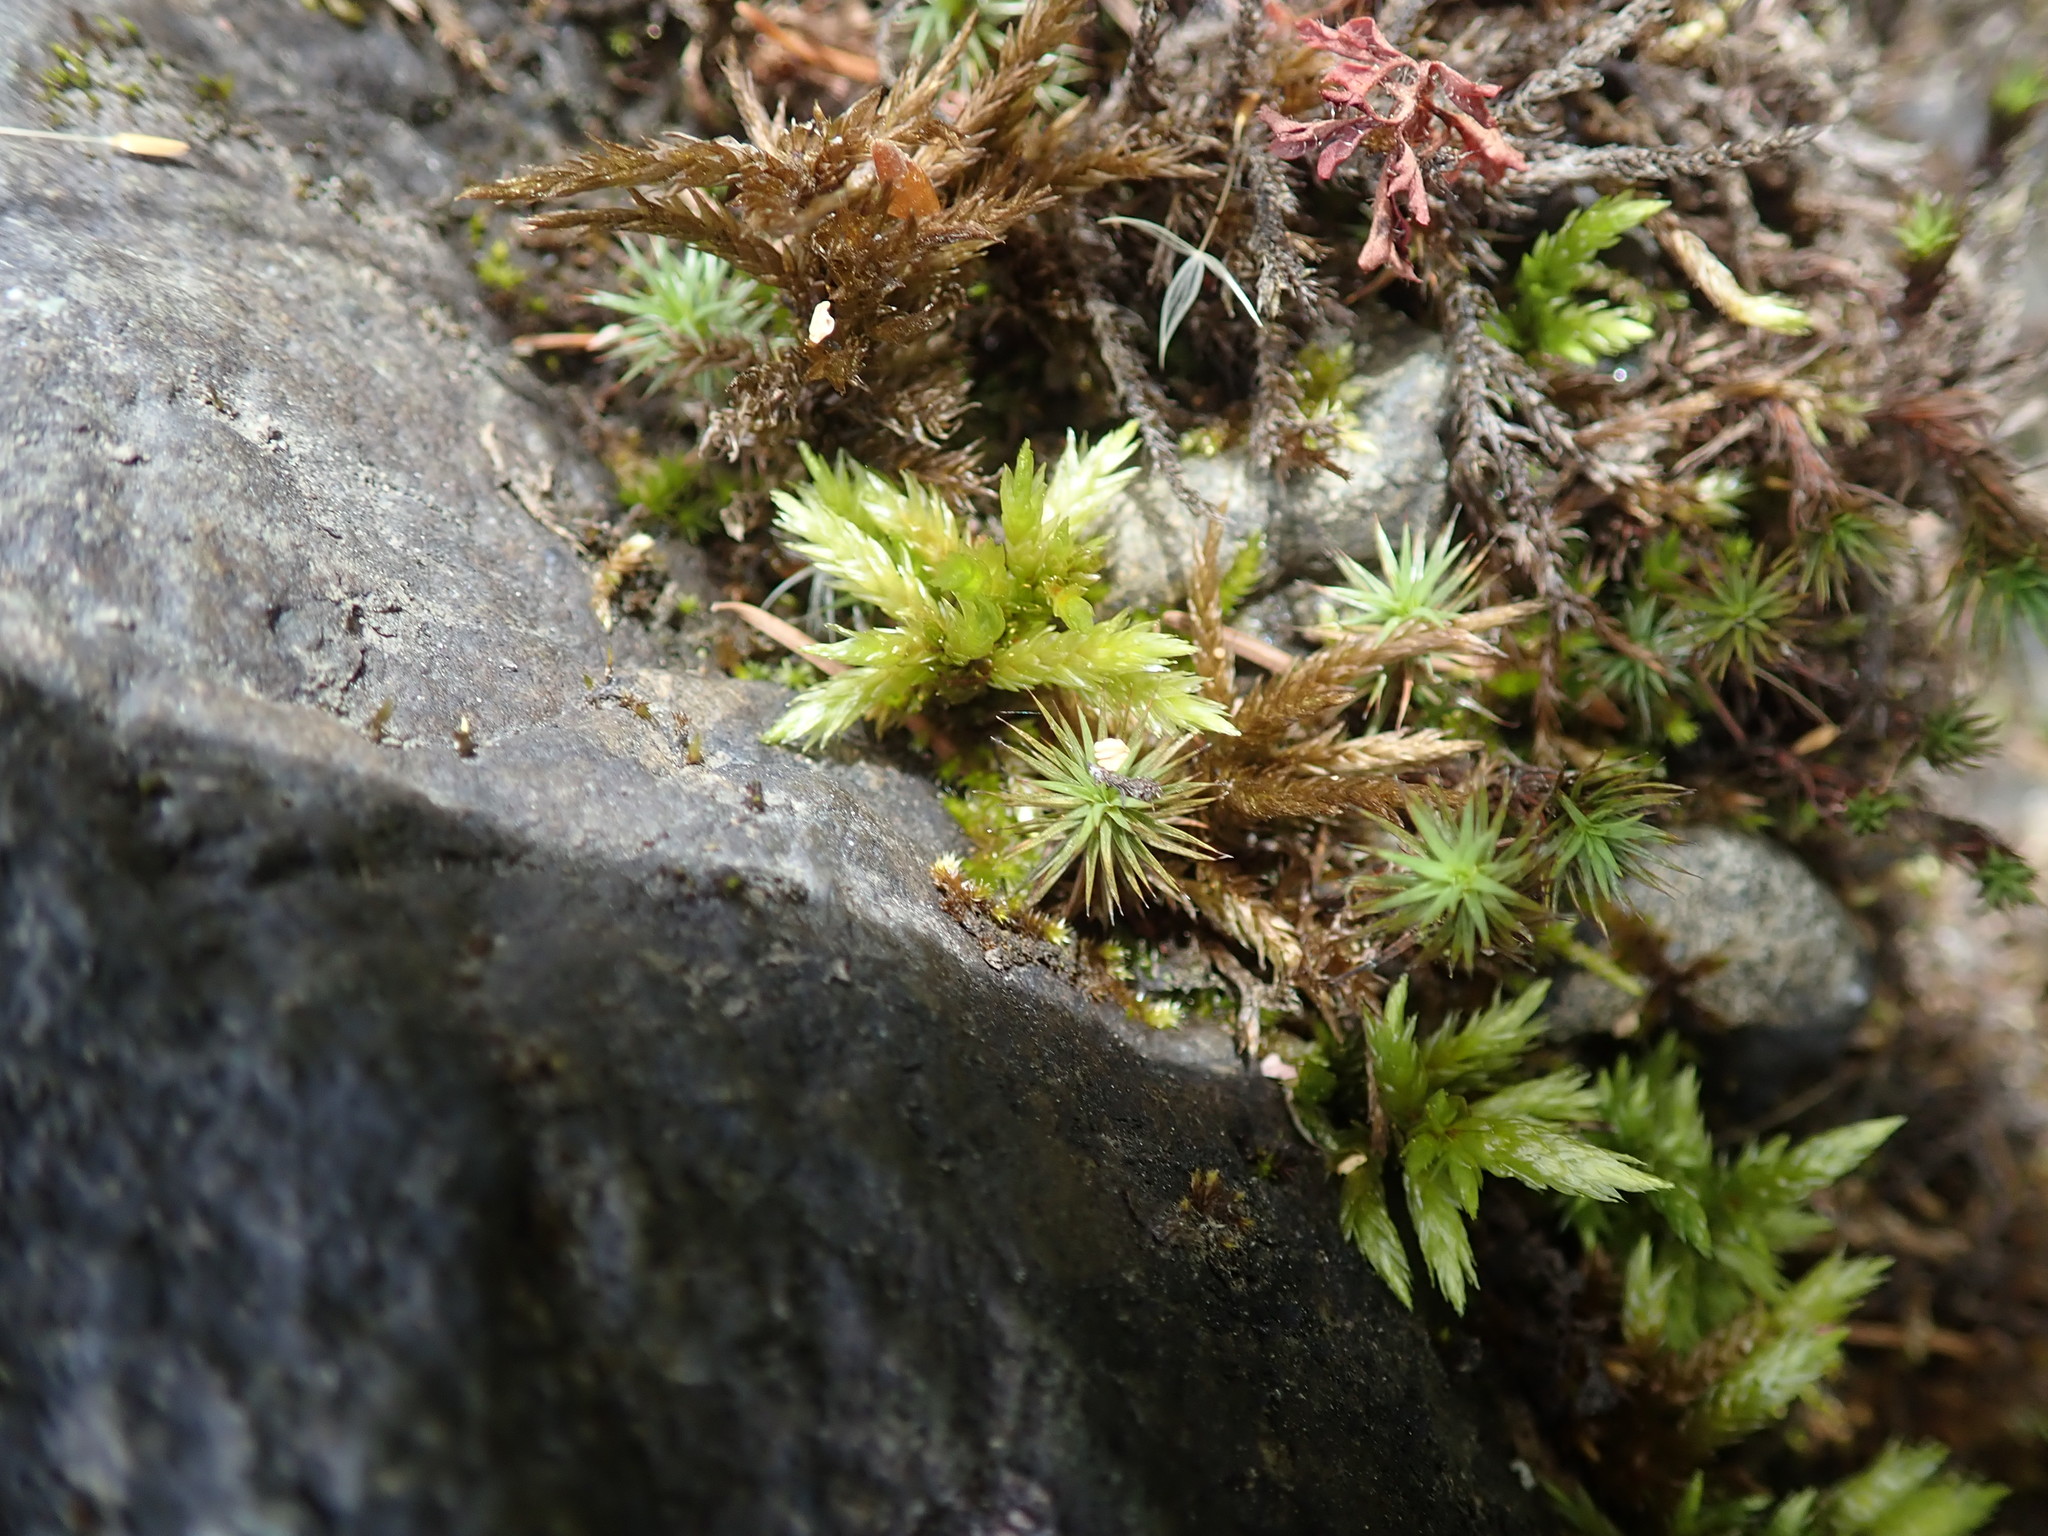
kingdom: Plantae
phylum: Bryophyta
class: Bryopsida
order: Hypnales
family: Climaciaceae
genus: Climacium
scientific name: Climacium dendroides
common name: Northern tree moss
